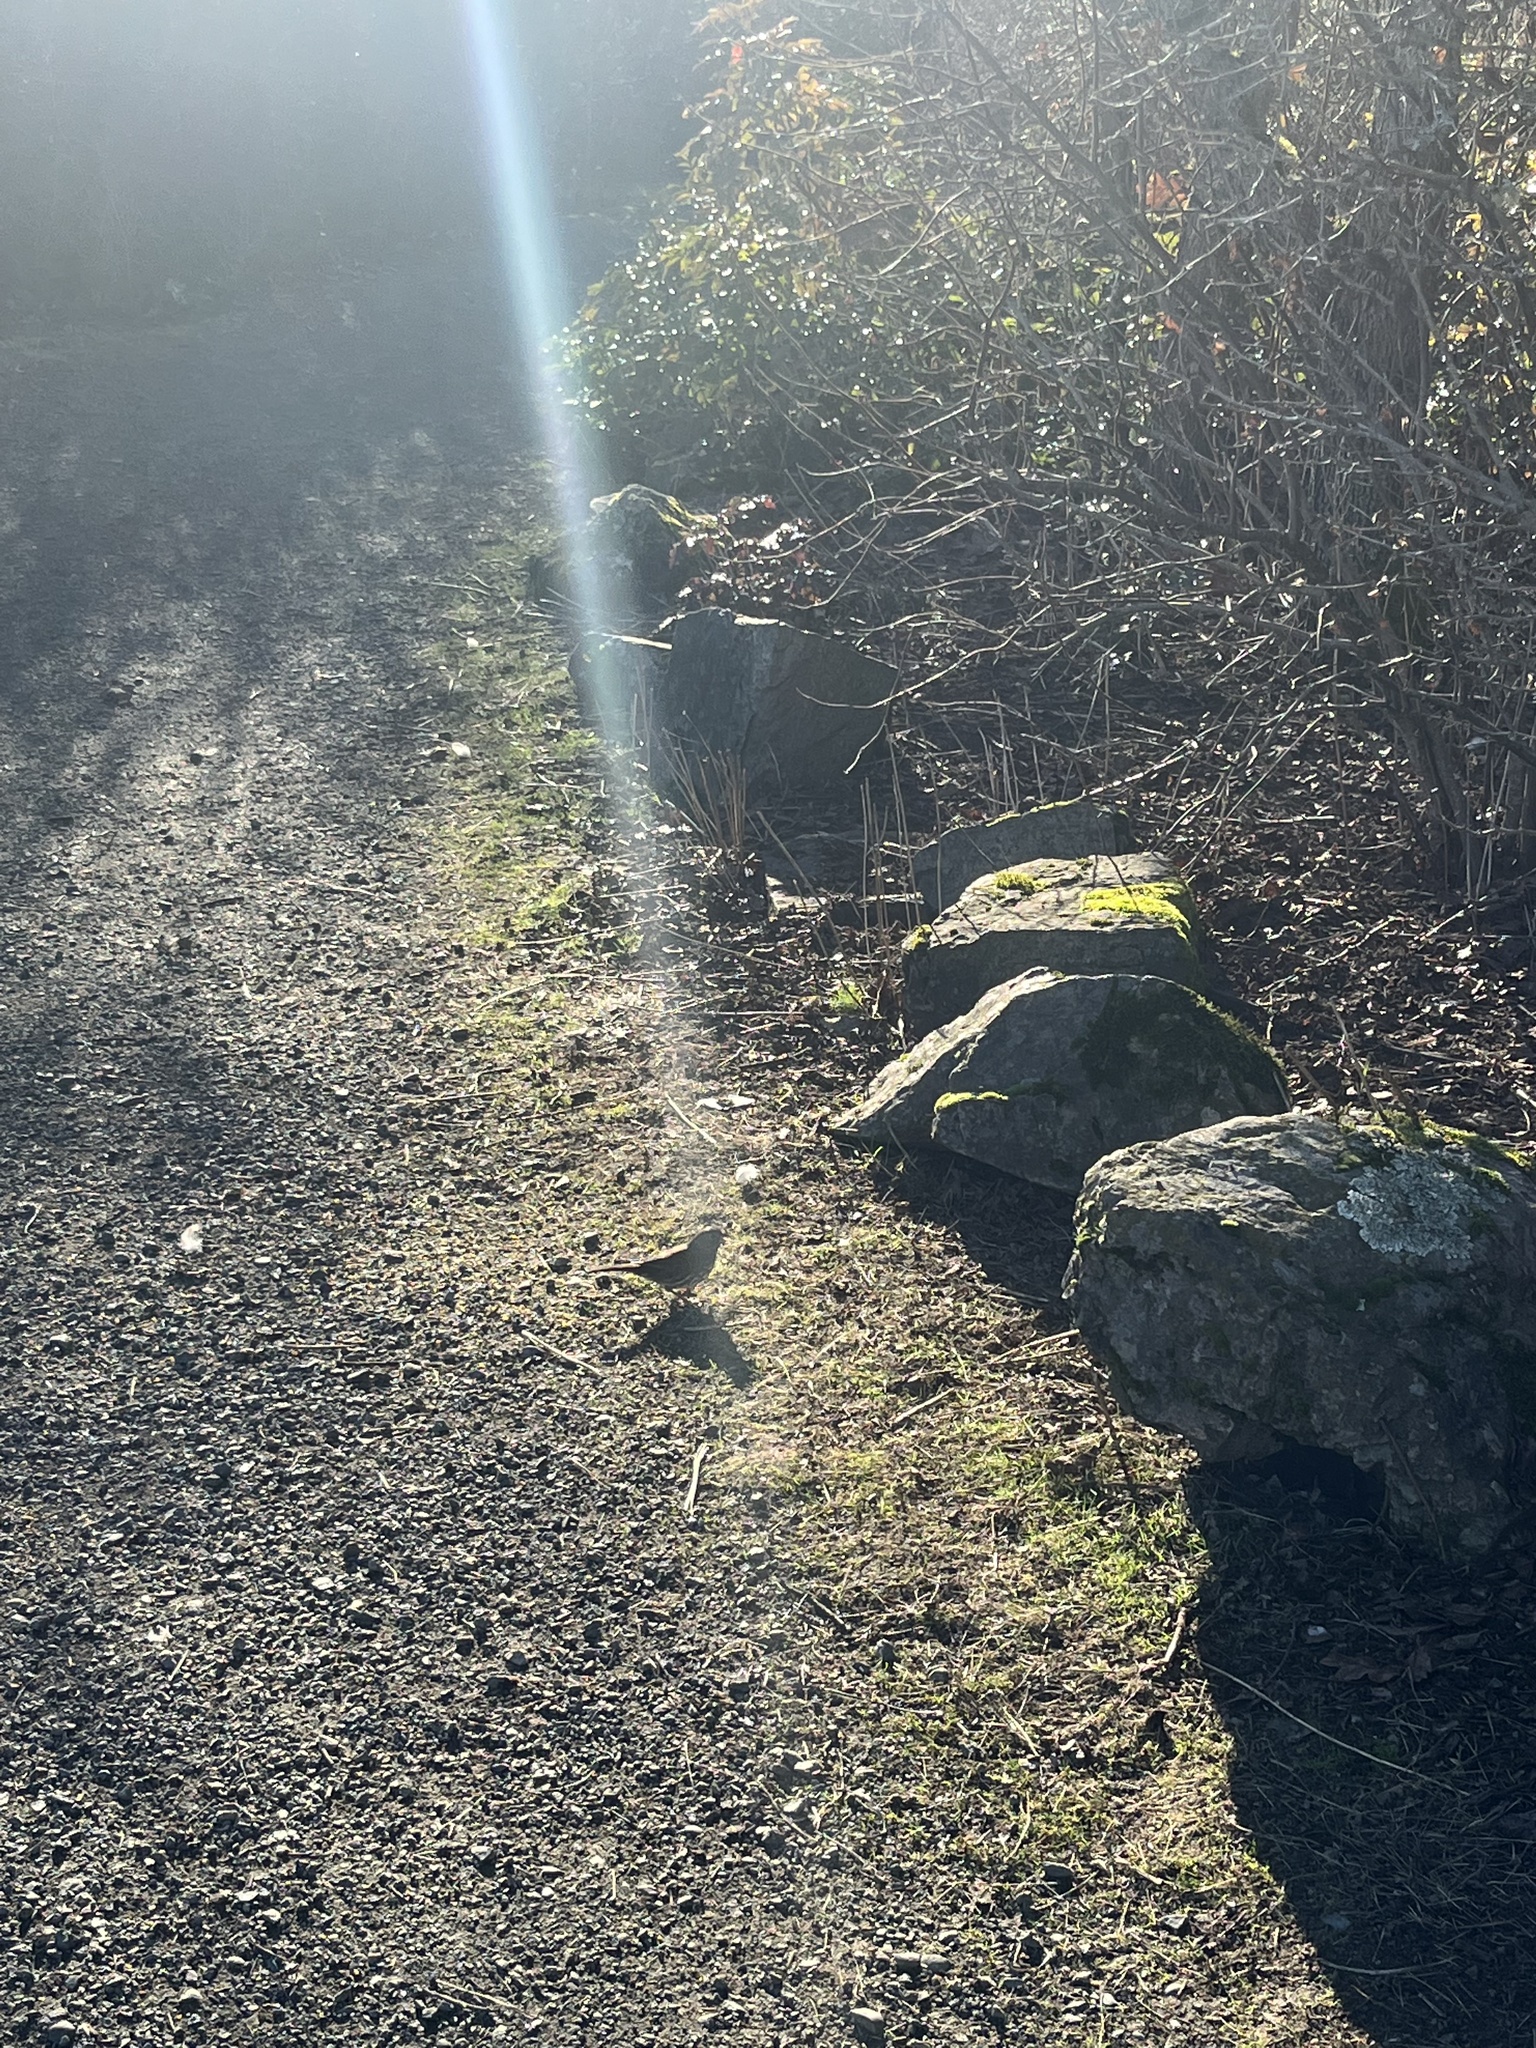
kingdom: Animalia
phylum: Chordata
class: Aves
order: Passeriformes
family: Passerellidae
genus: Passerella
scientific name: Passerella iliaca
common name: Fox sparrow
